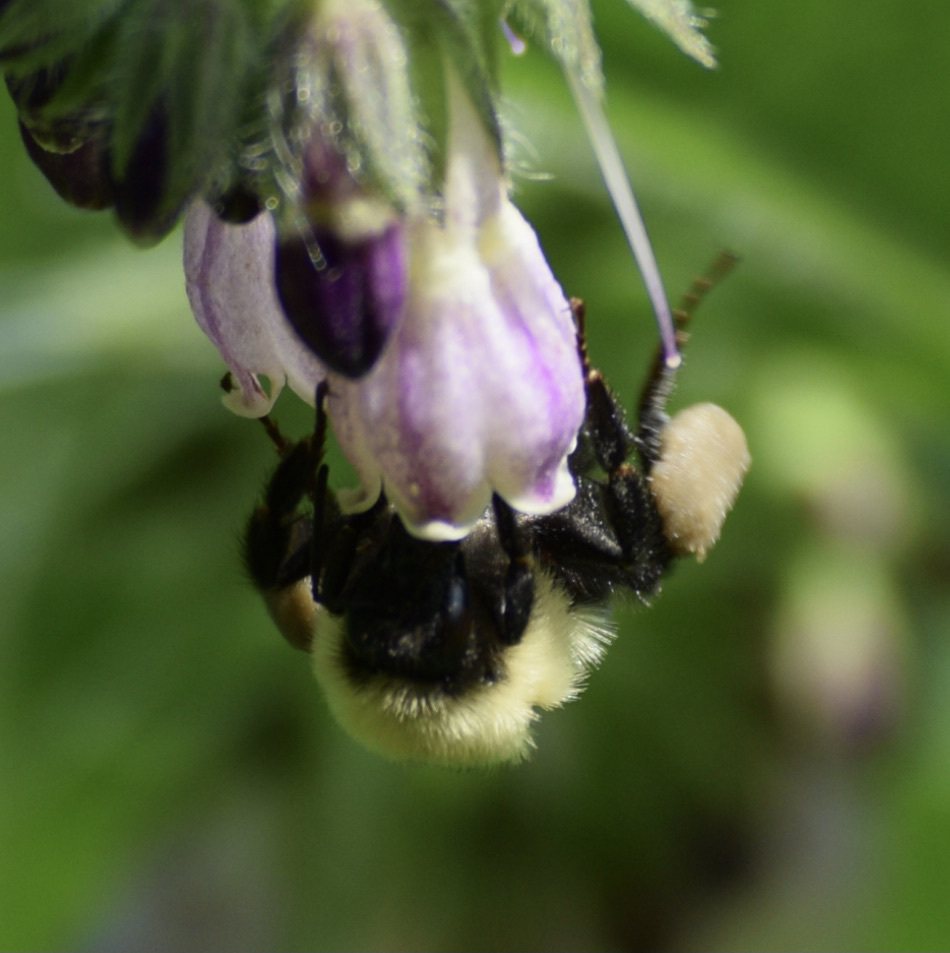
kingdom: Animalia
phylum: Arthropoda
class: Insecta
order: Hymenoptera
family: Apidae
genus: Pyrobombus
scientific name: Pyrobombus
